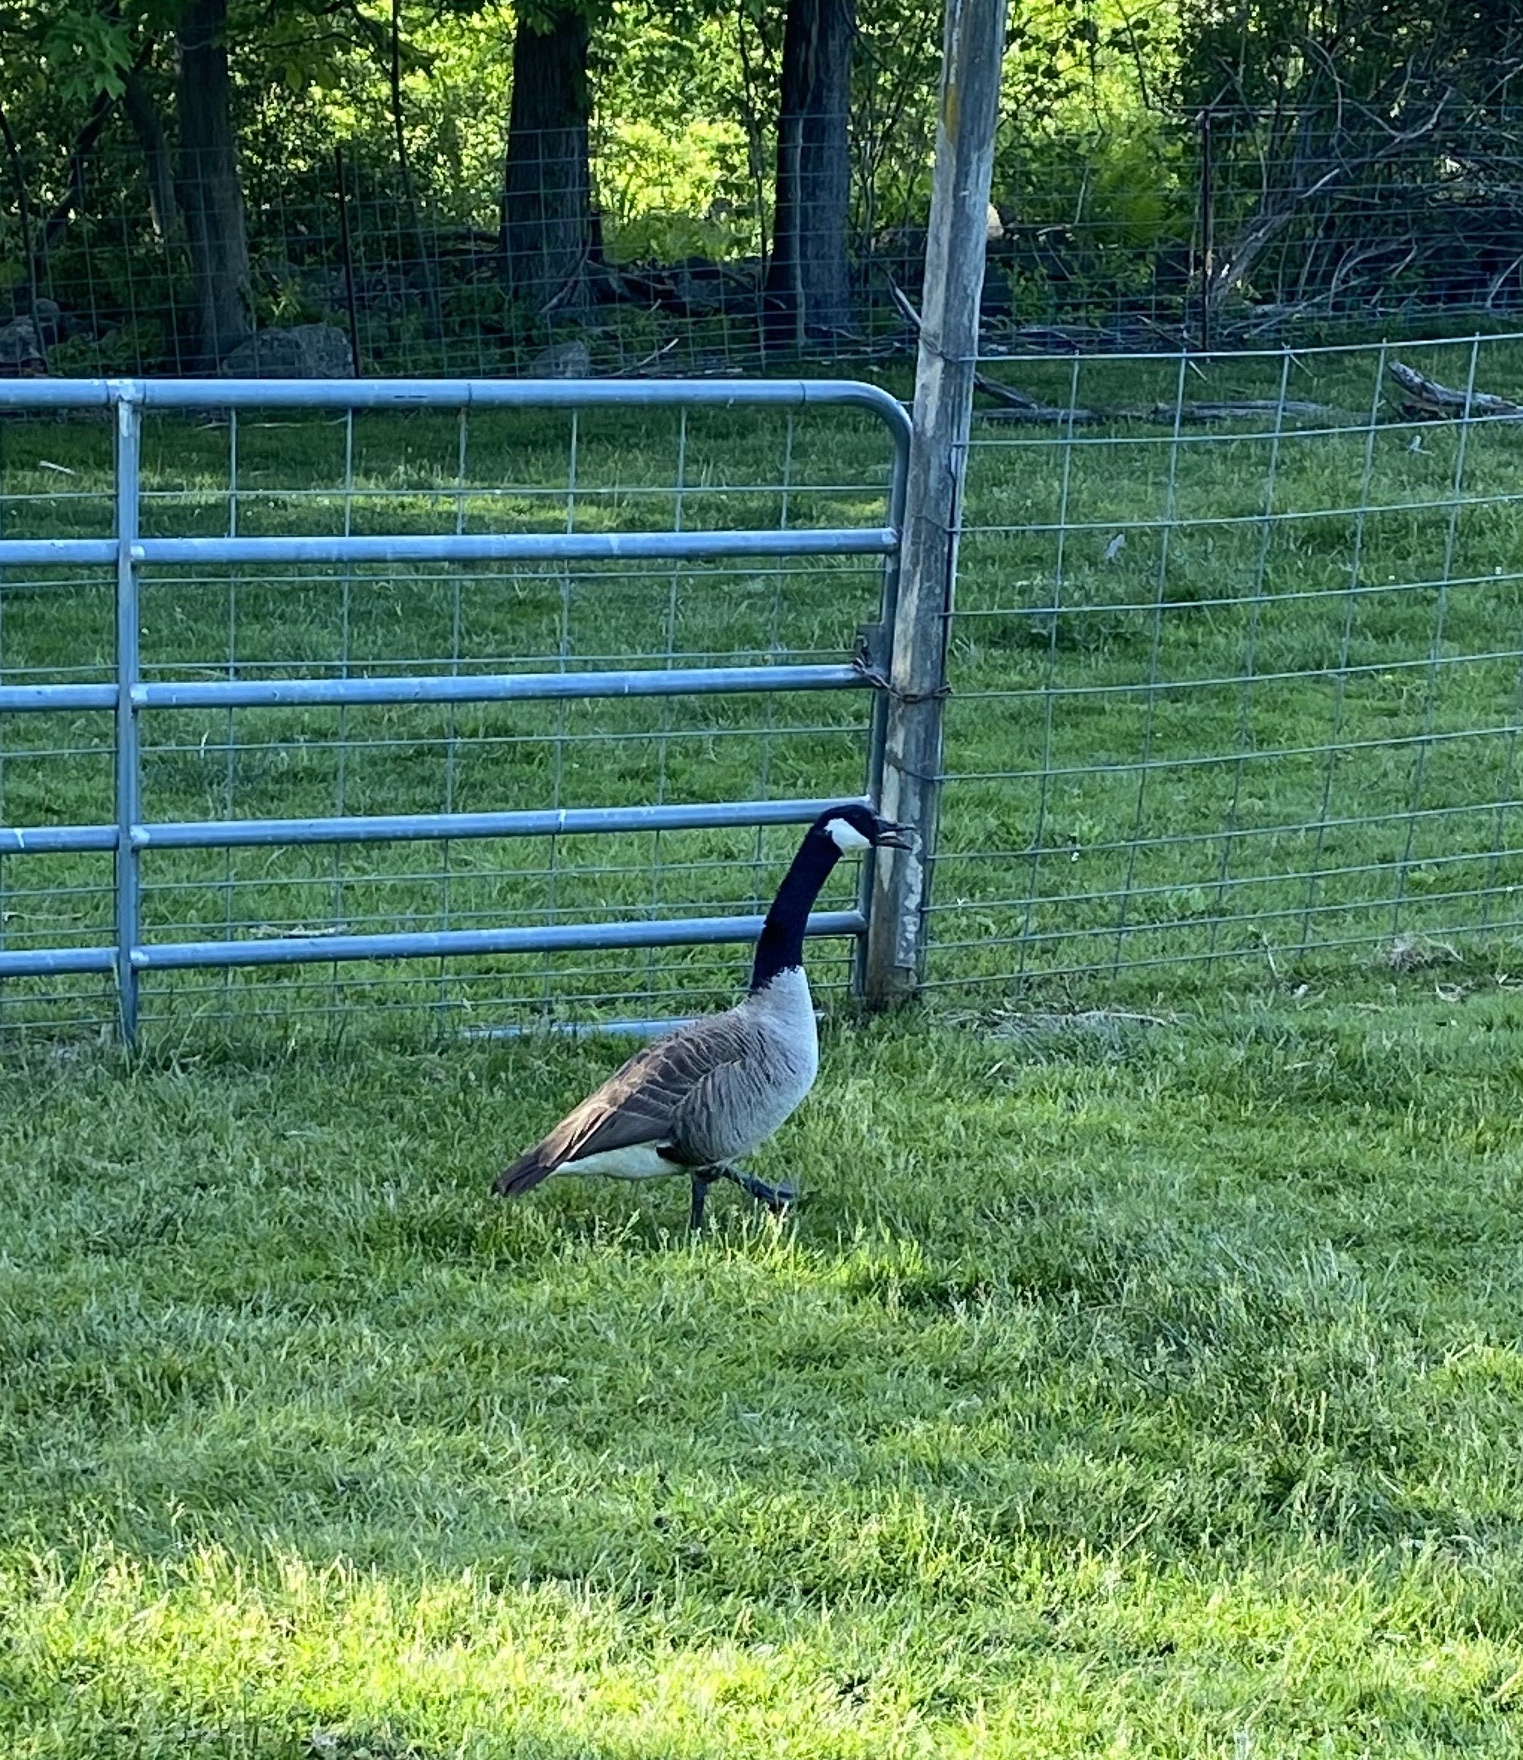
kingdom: Animalia
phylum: Chordata
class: Aves
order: Anseriformes
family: Anatidae
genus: Branta
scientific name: Branta canadensis
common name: Canada goose
